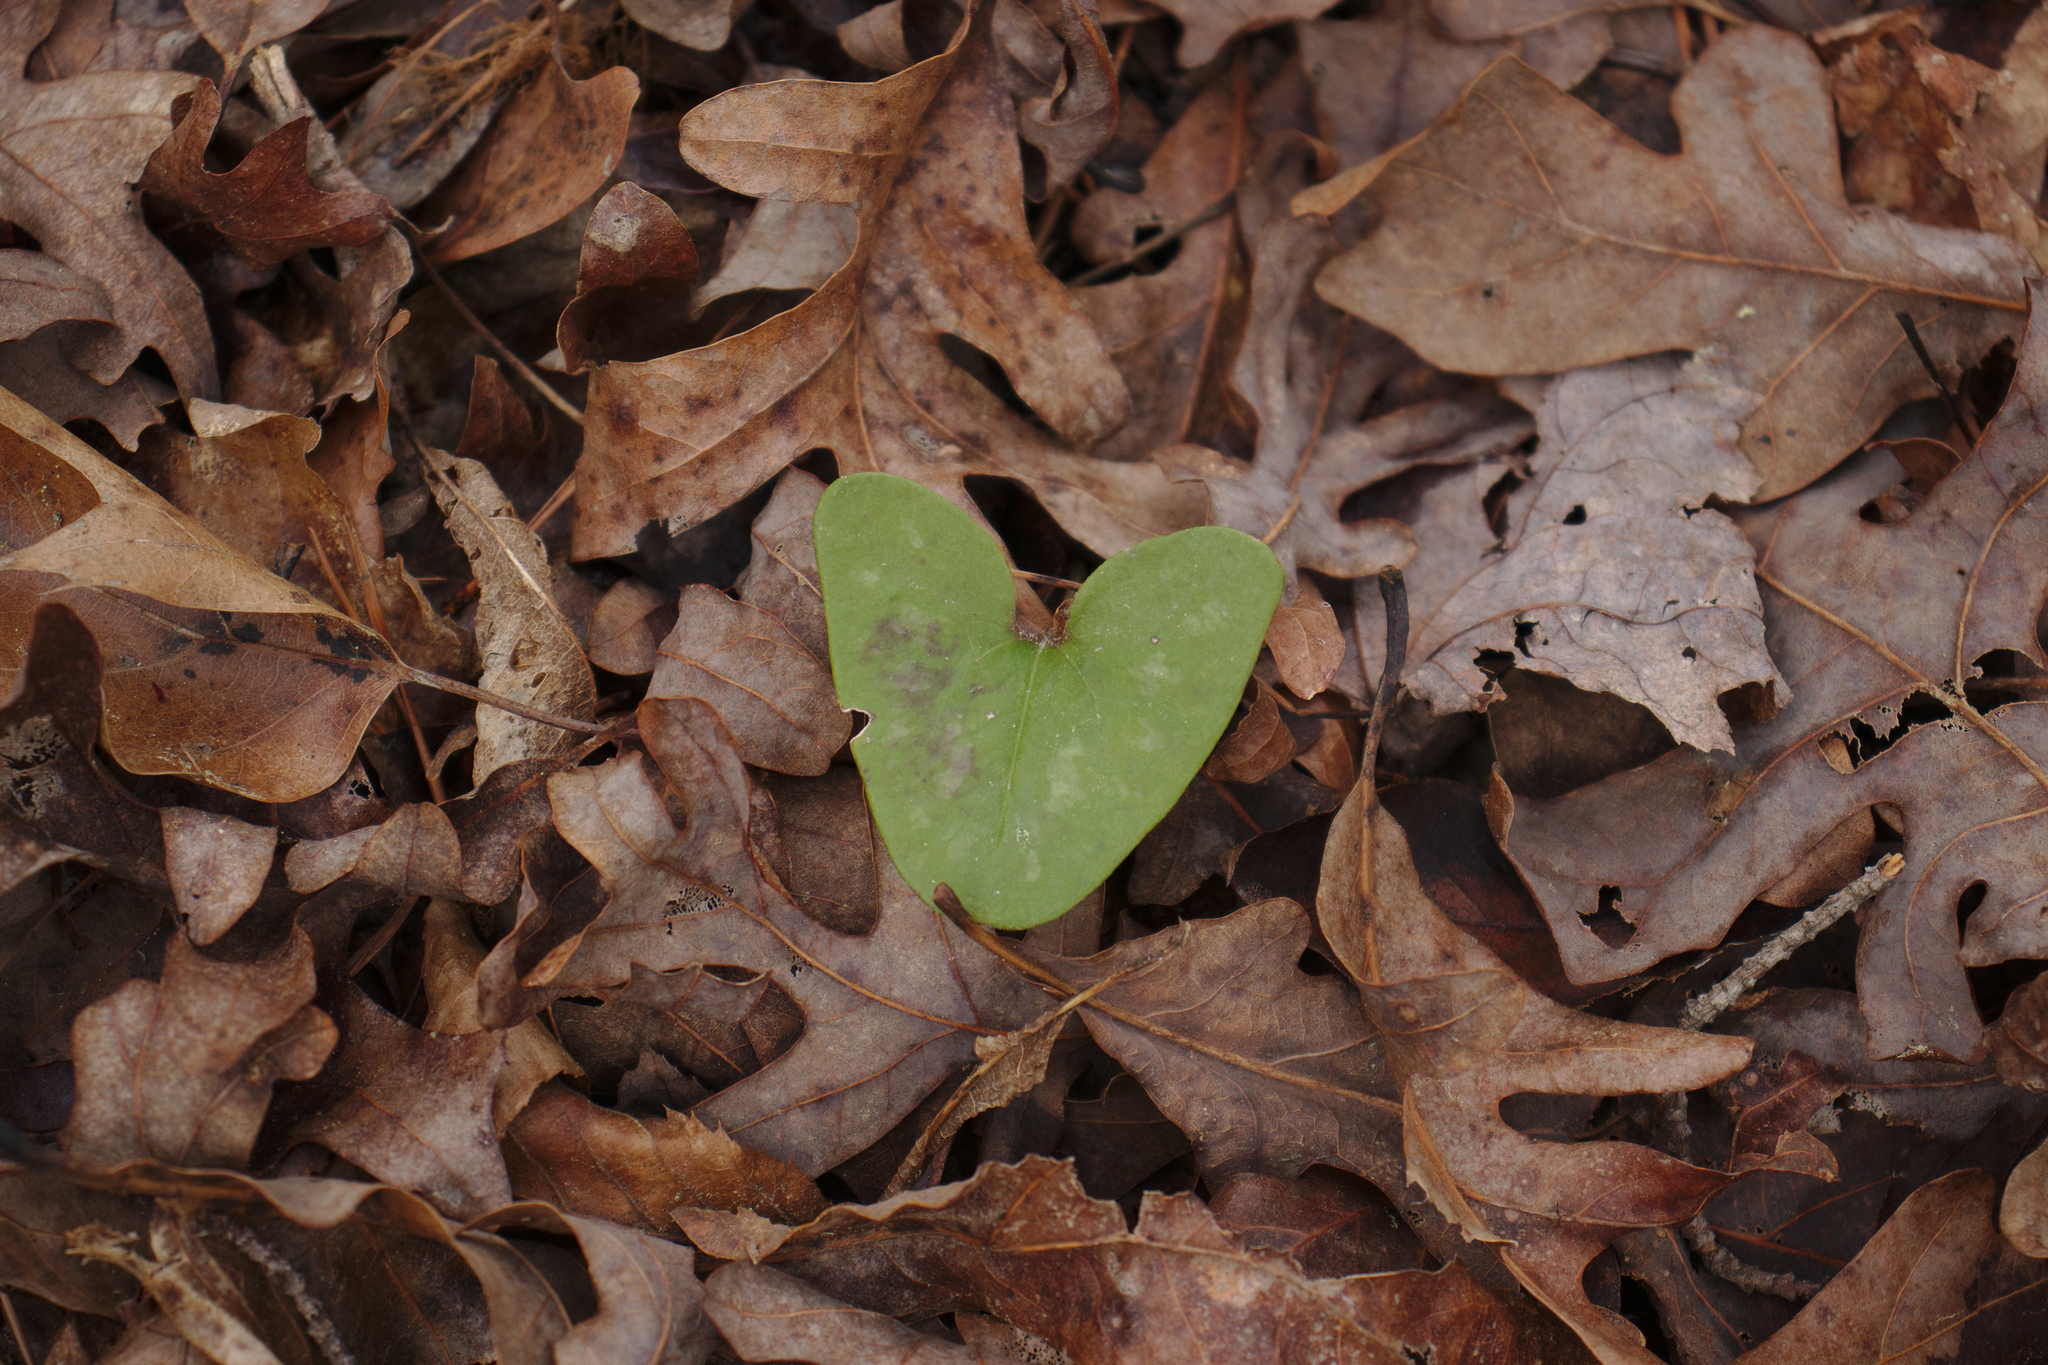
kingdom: Plantae
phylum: Tracheophyta
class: Magnoliopsida
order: Piperales
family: Aristolochiaceae
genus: Hexastylis
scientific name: Hexastylis arifolia
